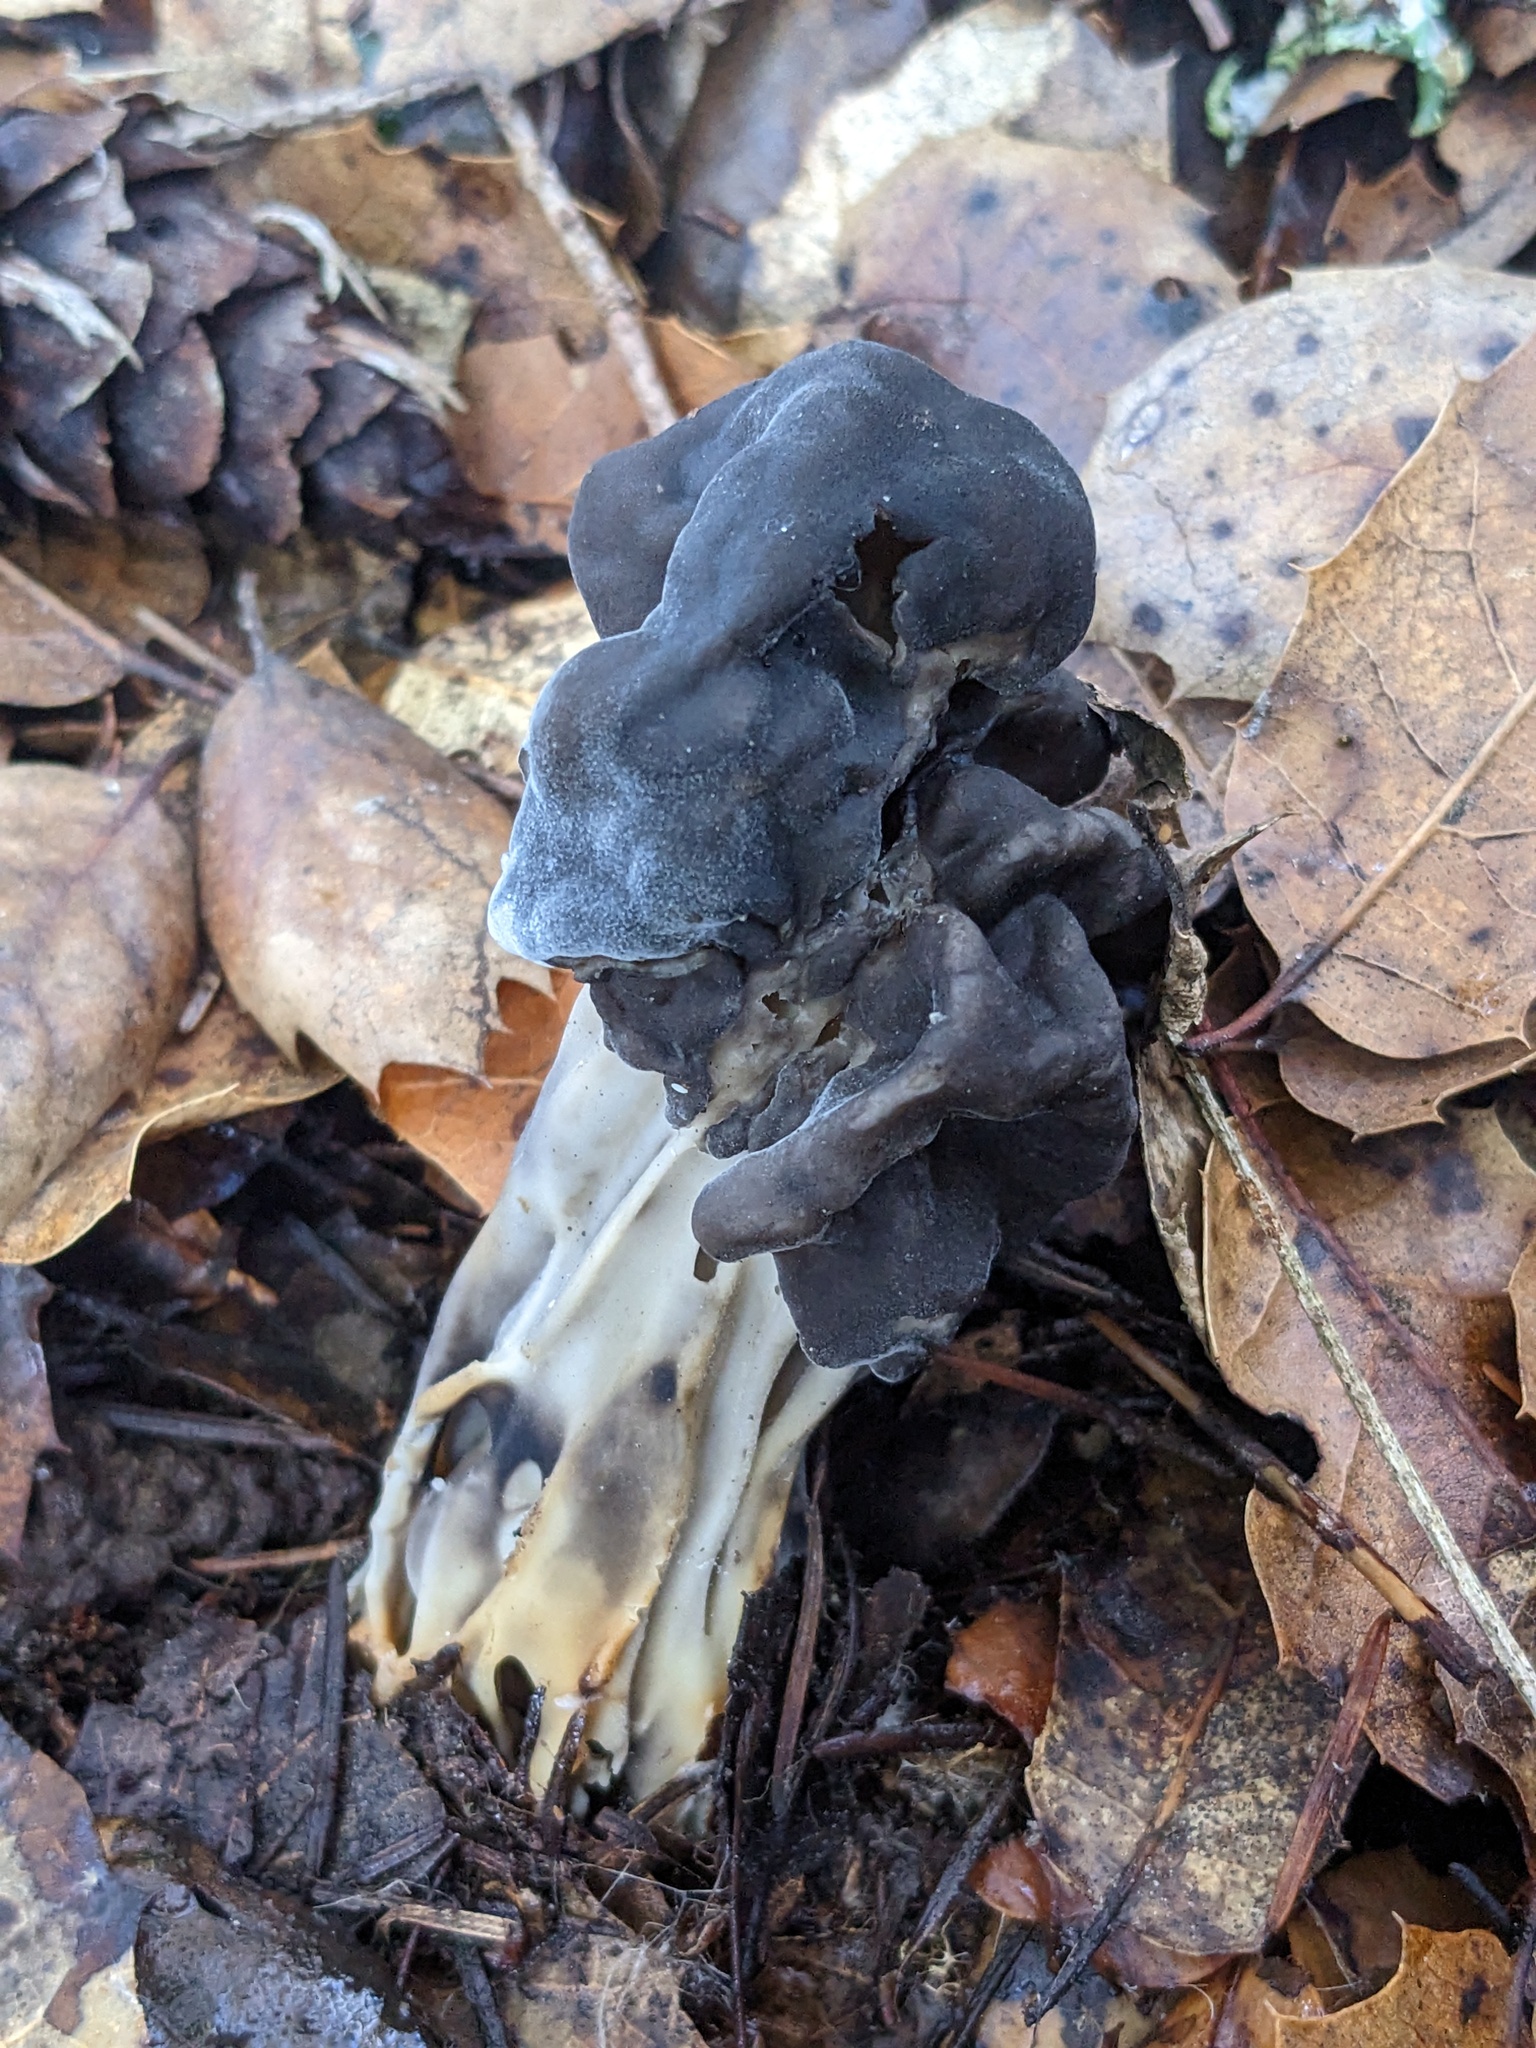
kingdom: Fungi
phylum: Ascomycota
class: Pezizomycetes
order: Pezizales
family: Helvellaceae
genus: Helvella
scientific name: Helvella dryophila
